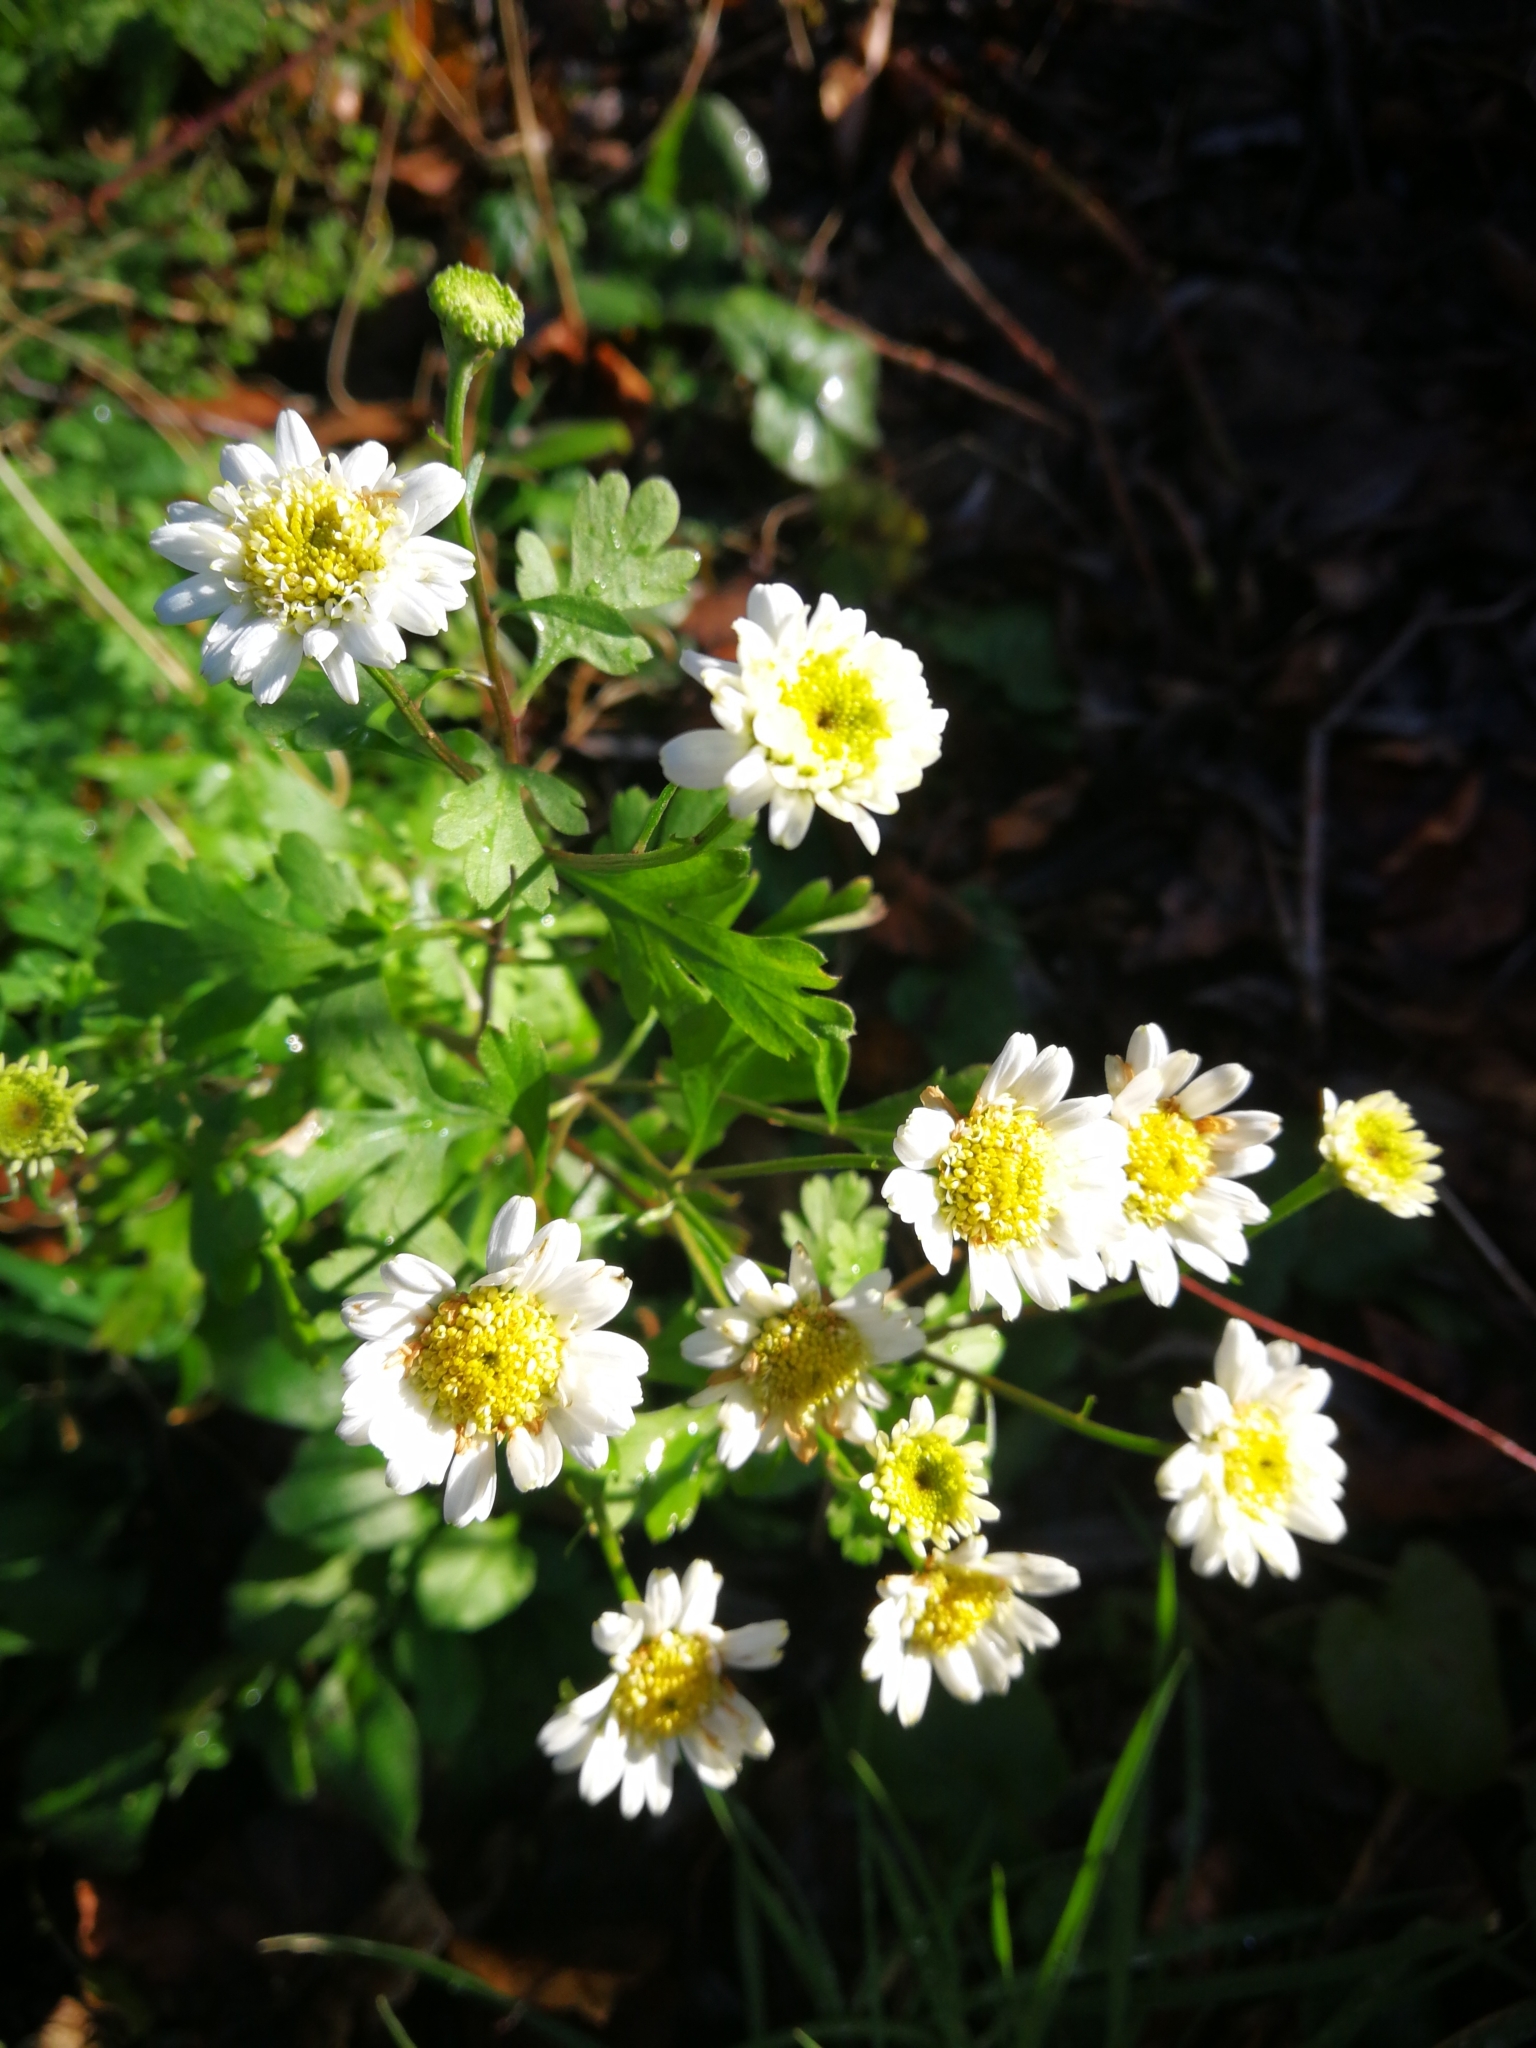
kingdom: Plantae
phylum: Tracheophyta
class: Magnoliopsida
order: Asterales
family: Asteraceae
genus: Tanacetum
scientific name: Tanacetum parthenium
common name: Feverfew
